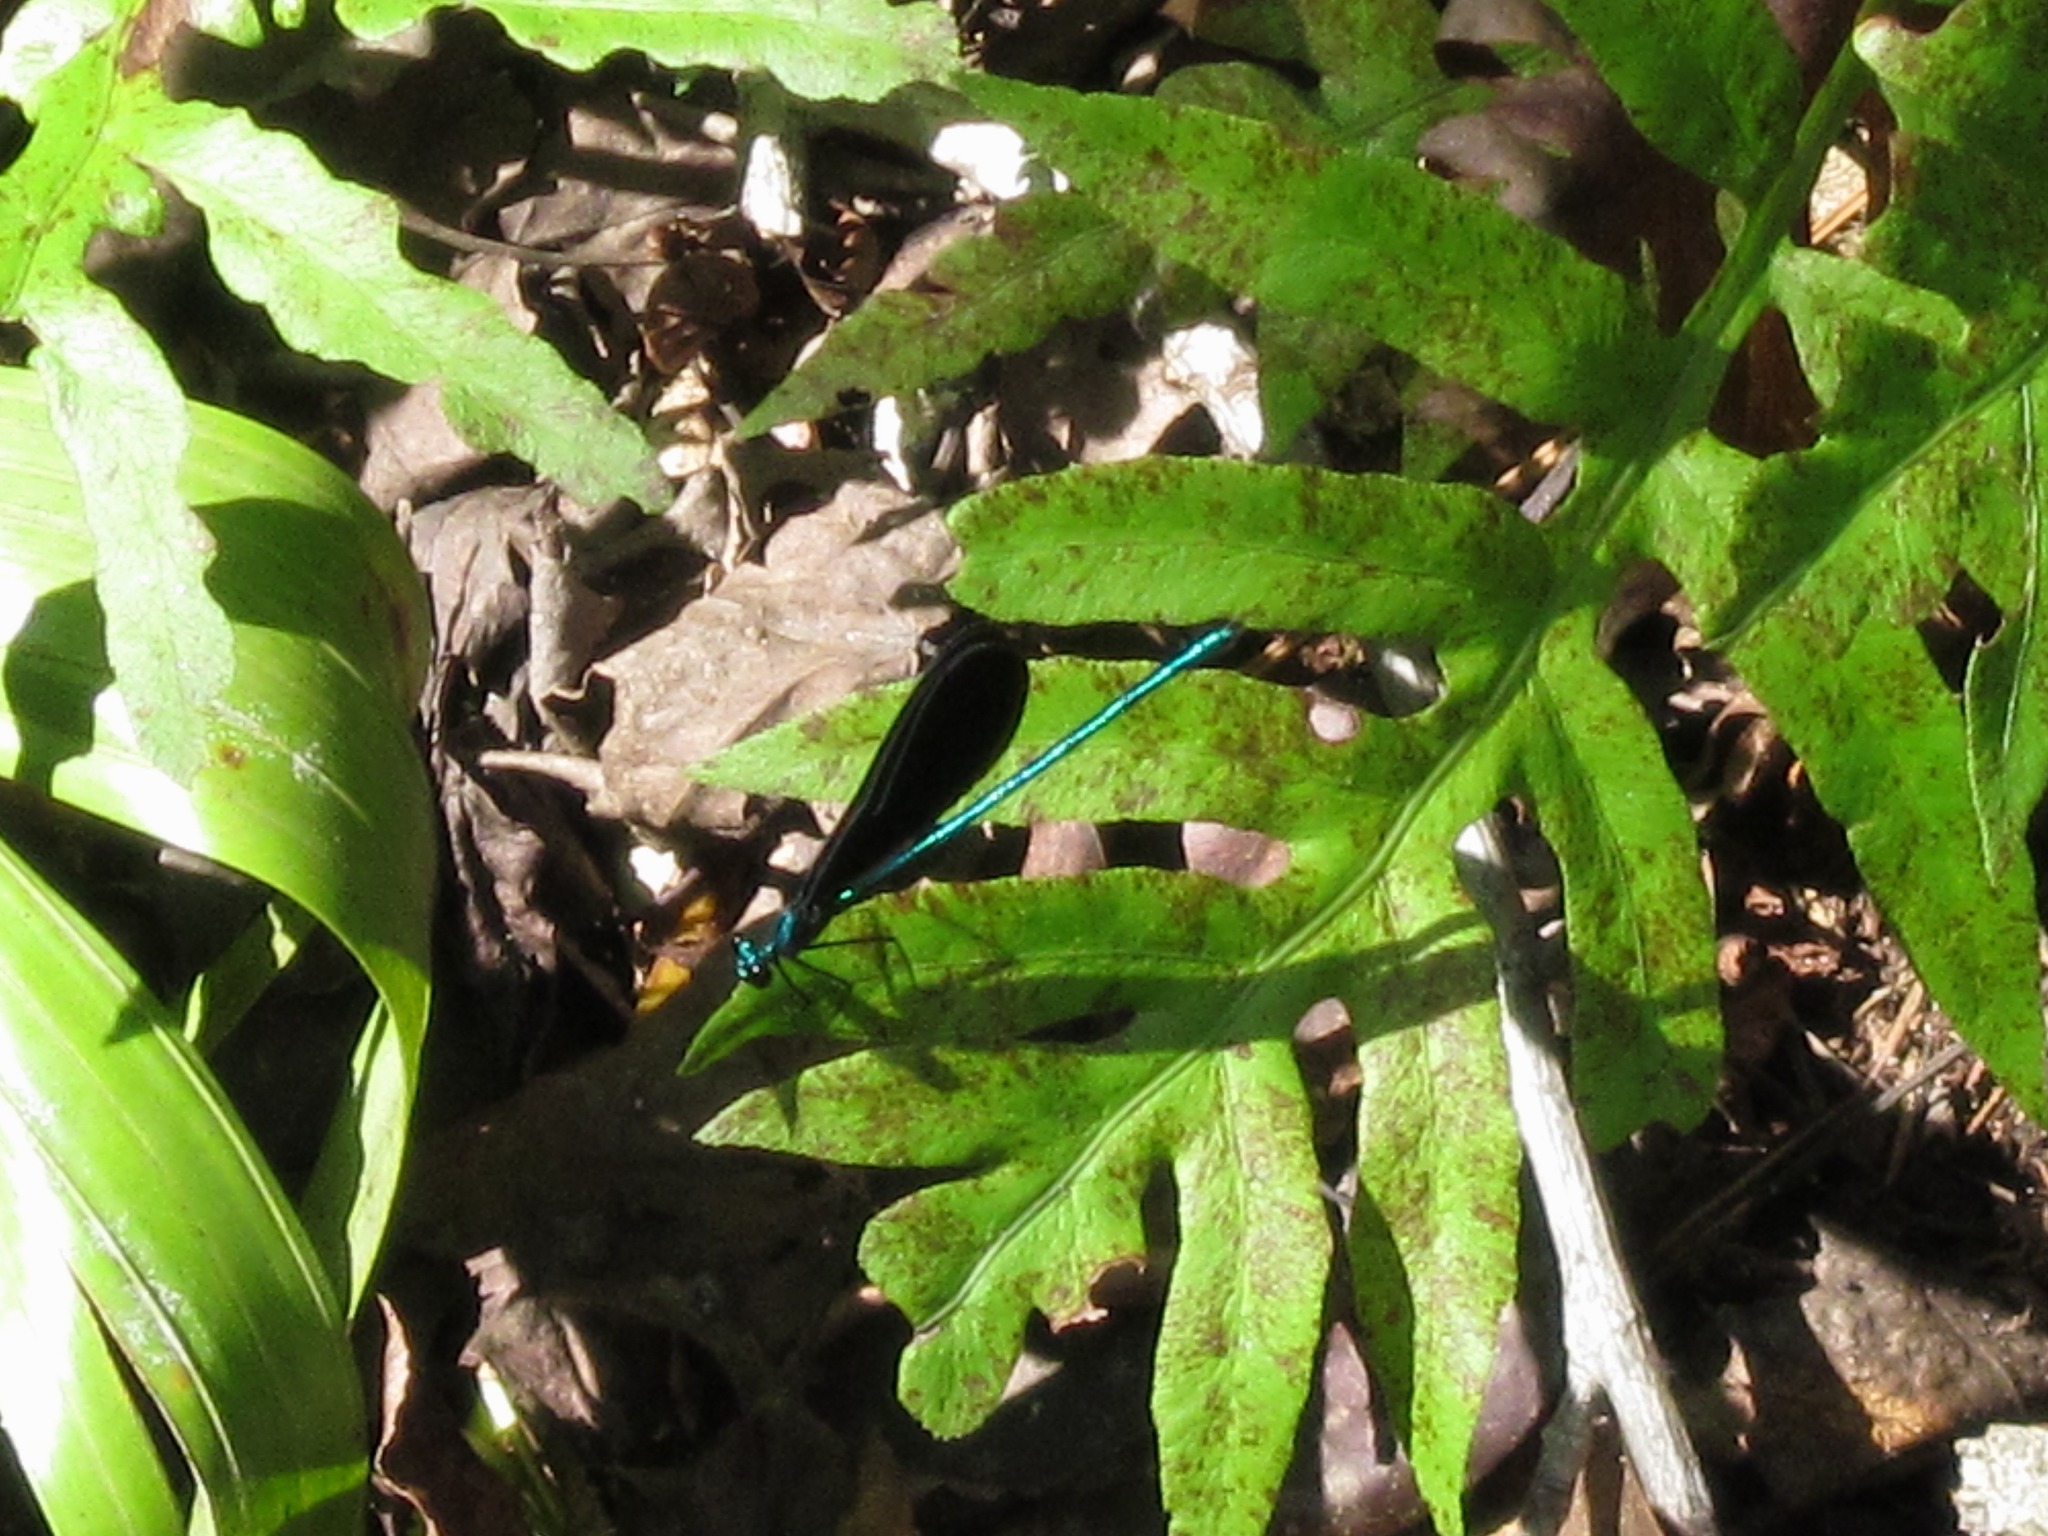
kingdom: Animalia
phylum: Arthropoda
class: Insecta
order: Odonata
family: Calopterygidae
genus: Calopteryx
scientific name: Calopteryx maculata
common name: Ebony jewelwing
